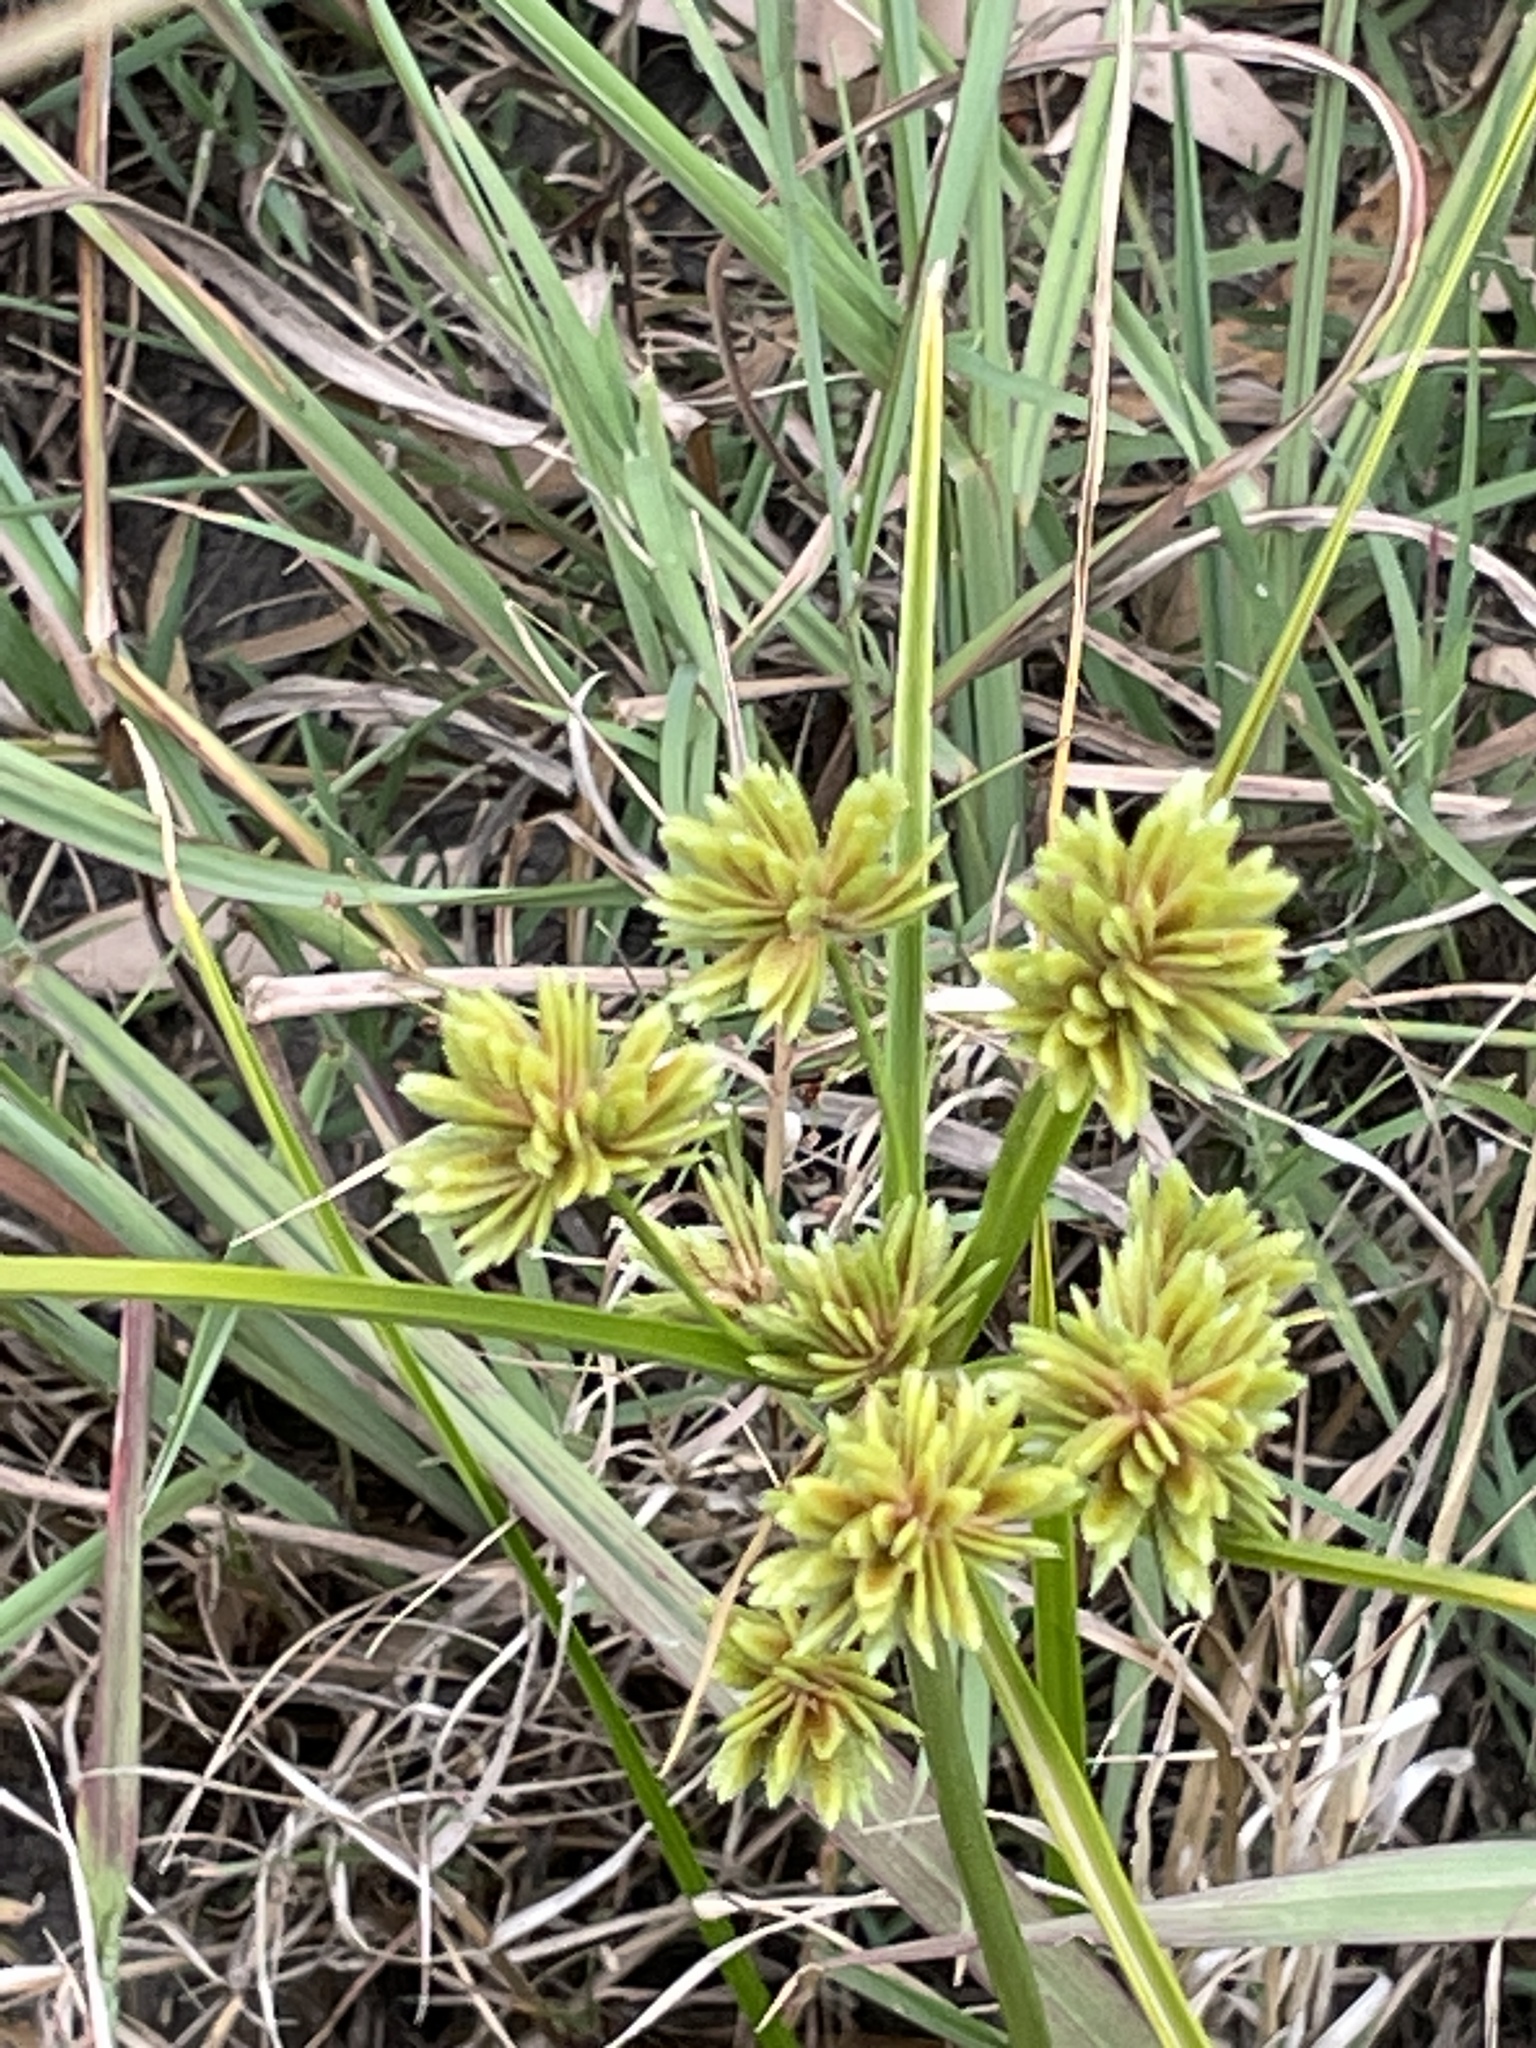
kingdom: Plantae
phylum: Tracheophyta
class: Liliopsida
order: Poales
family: Cyperaceae
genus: Cyperus
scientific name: Cyperus eragrostis
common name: Tall flatsedge
